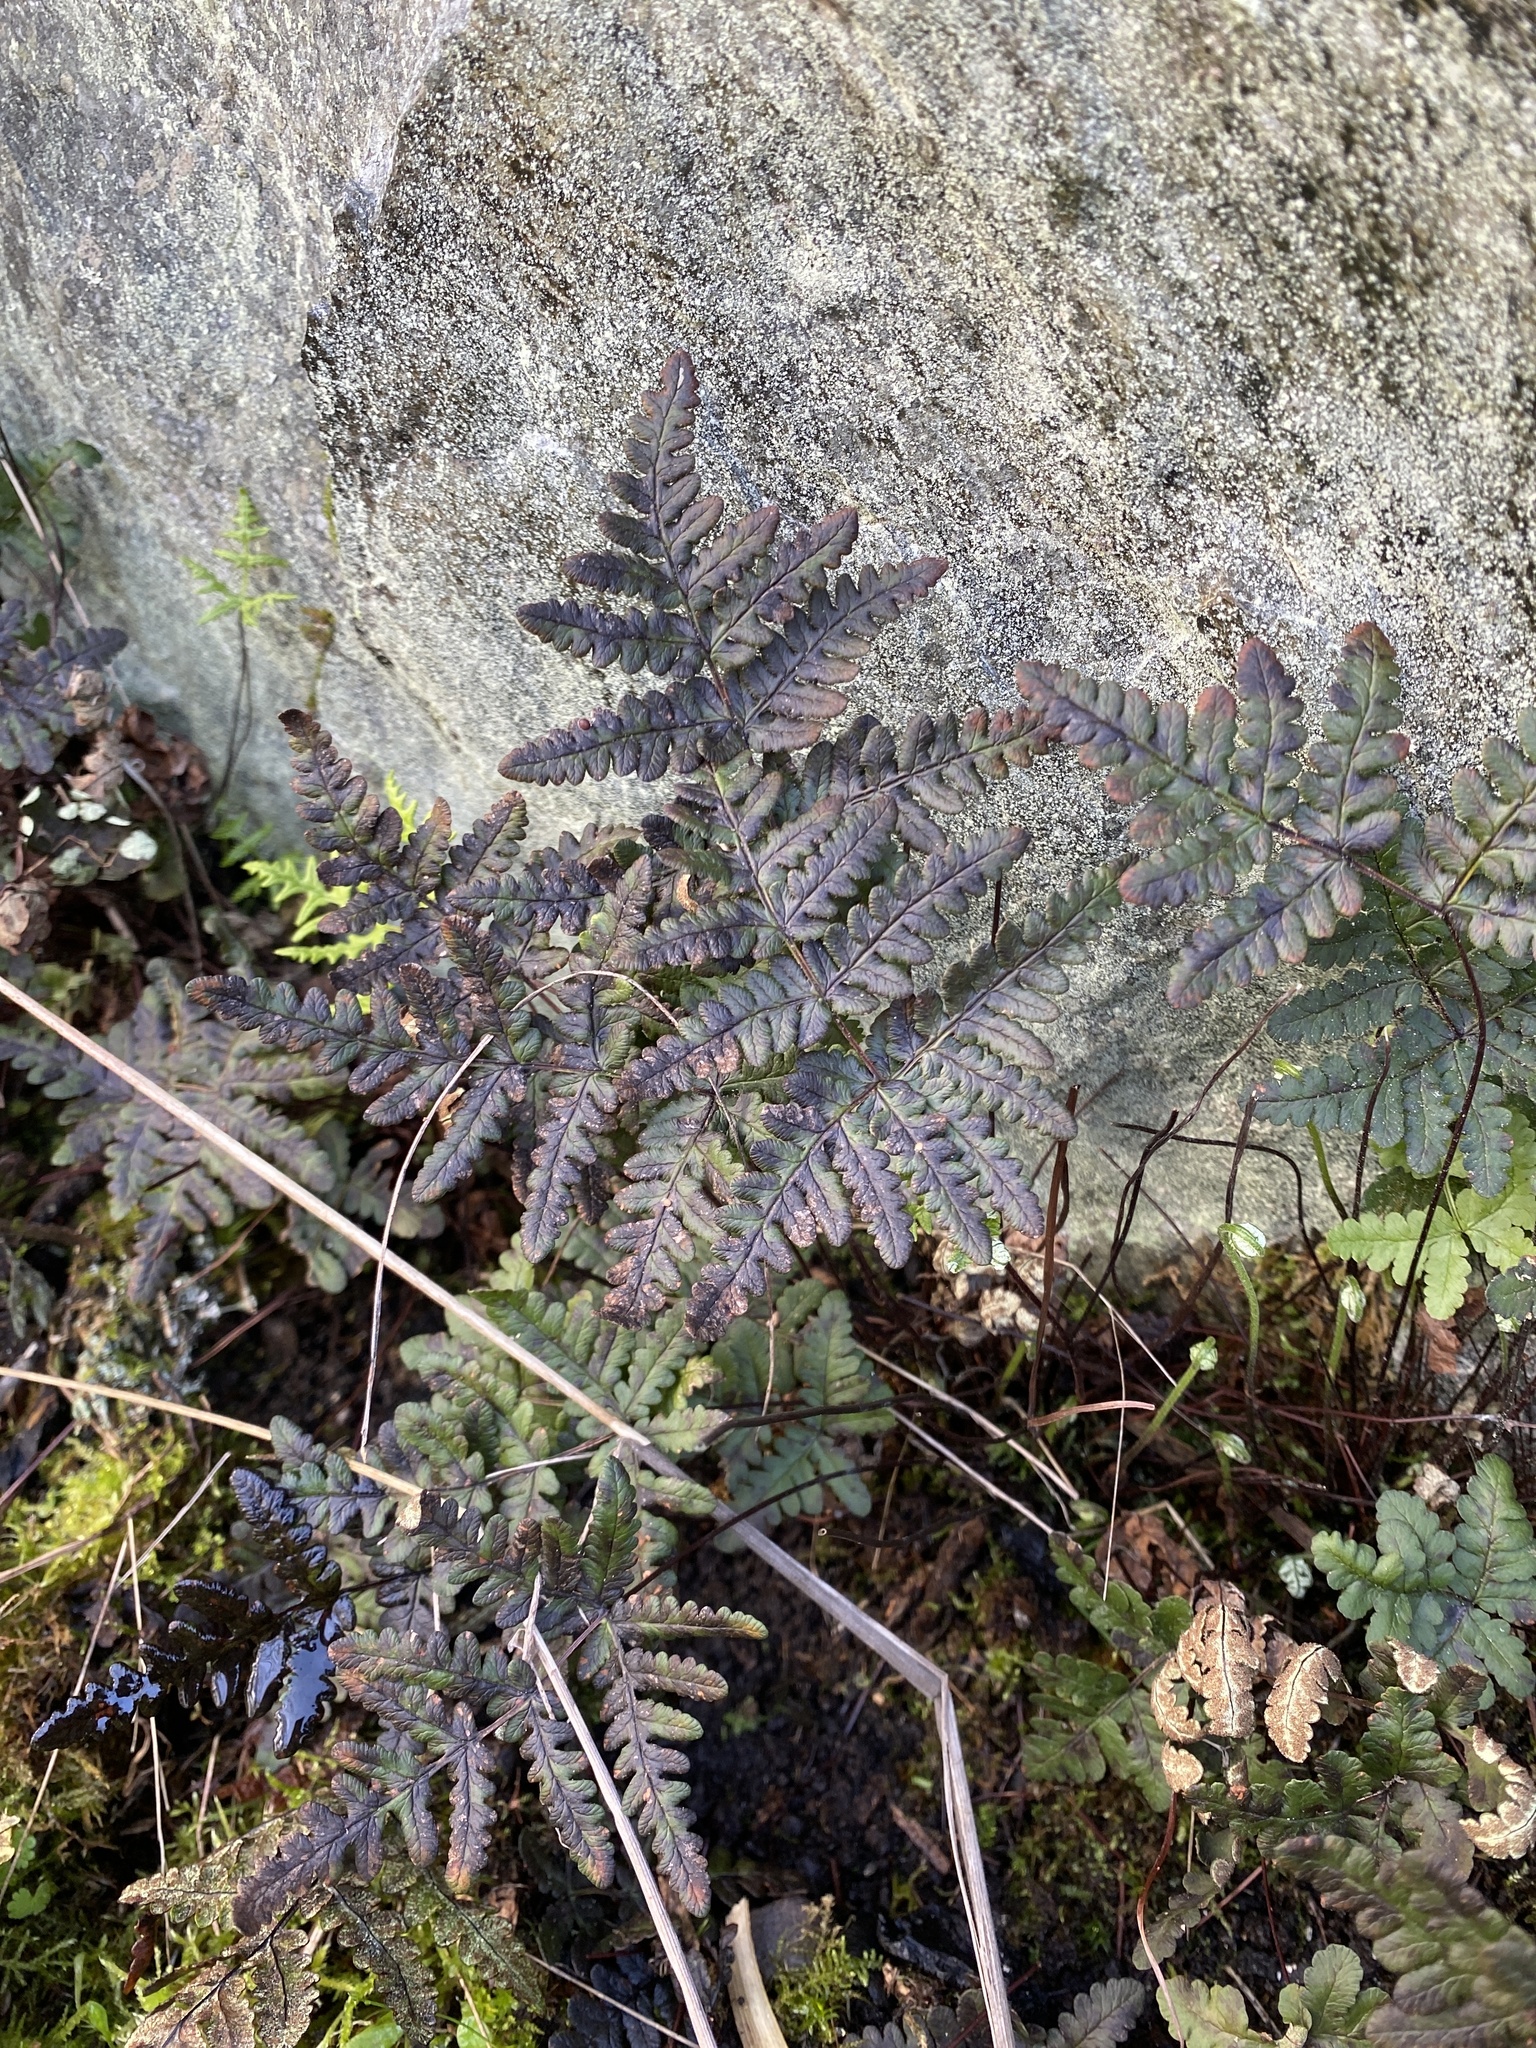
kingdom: Plantae
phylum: Tracheophyta
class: Polypodiopsida
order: Polypodiales
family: Pteridaceae
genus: Pentagramma
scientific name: Pentagramma triangularis
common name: Gold fern
